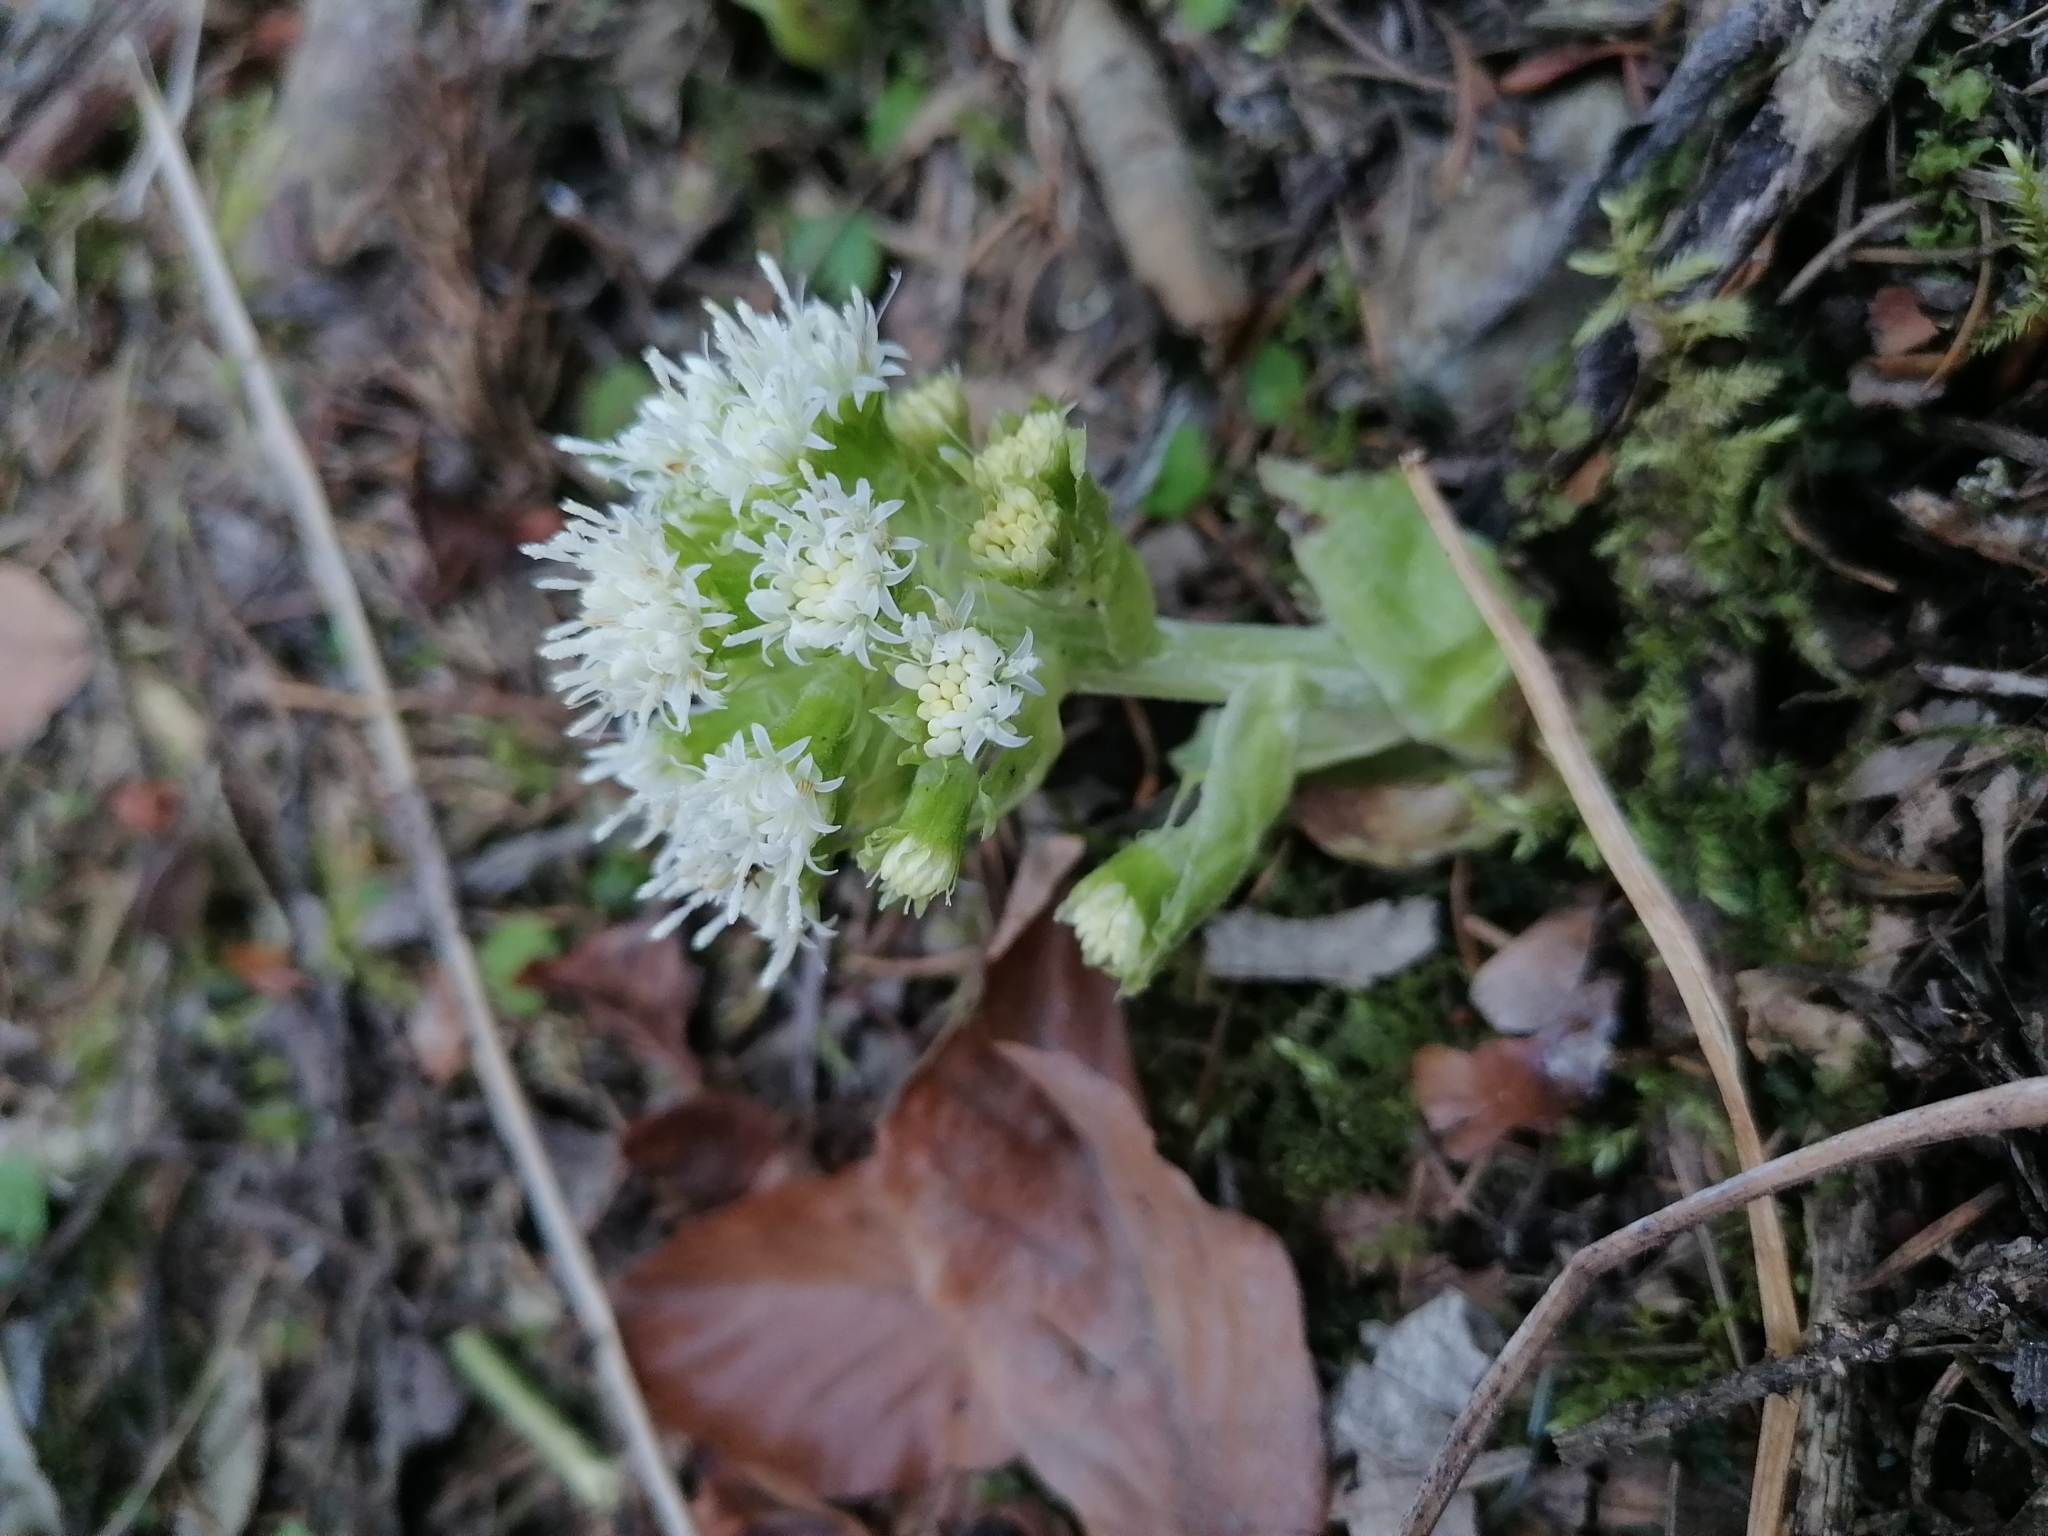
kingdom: Plantae
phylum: Tracheophyta
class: Magnoliopsida
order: Asterales
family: Asteraceae
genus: Petasites
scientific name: Petasites albus
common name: White butterbur
